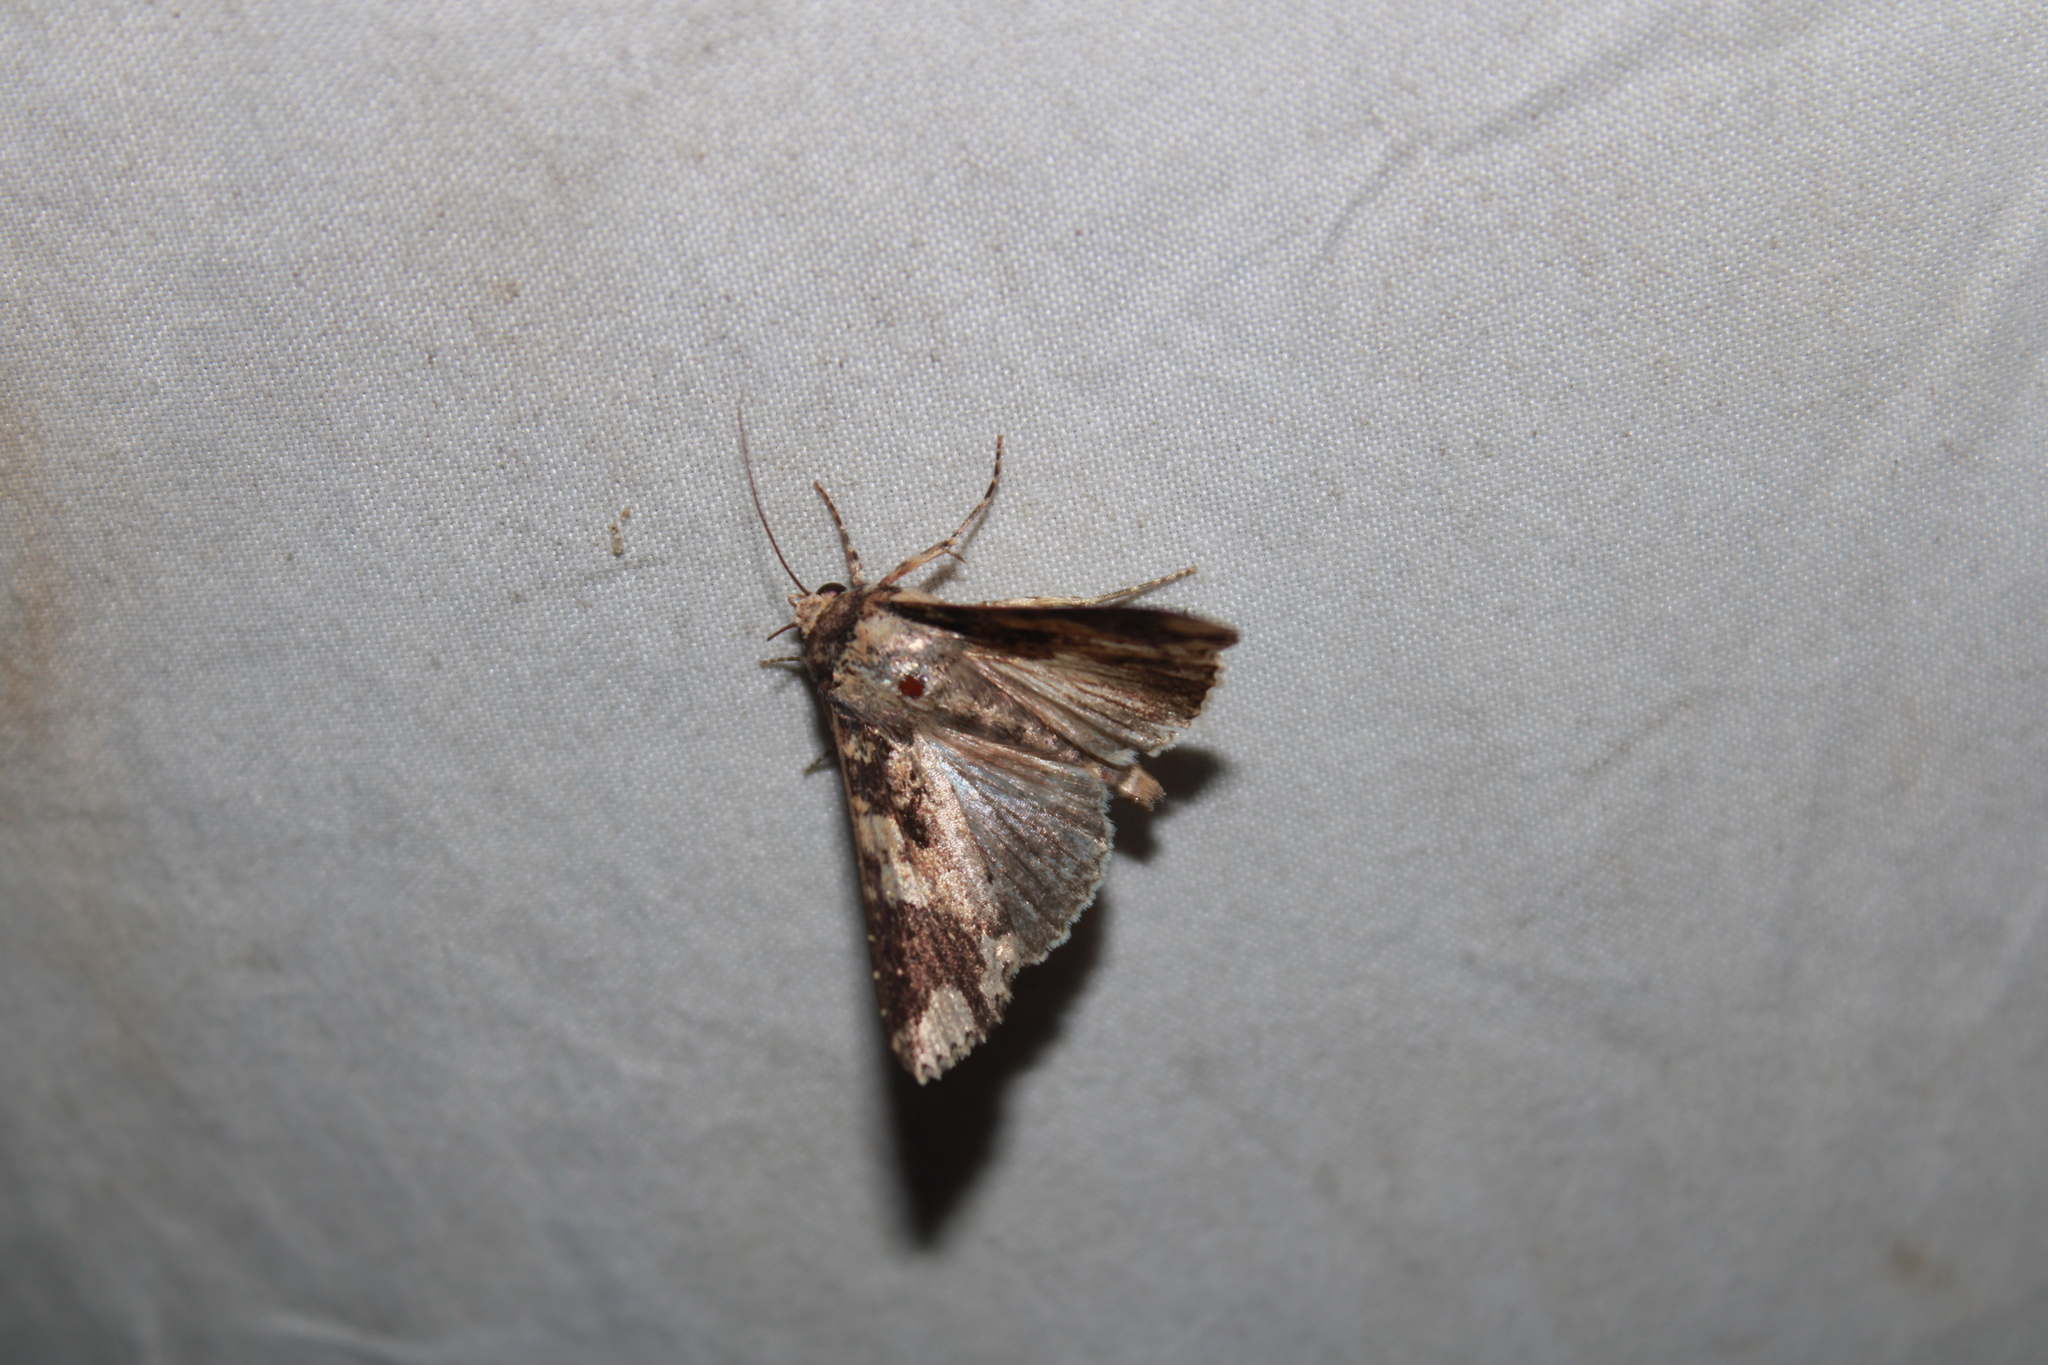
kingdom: Animalia
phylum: Arthropoda
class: Insecta
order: Lepidoptera
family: Noctuidae
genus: Condica
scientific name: Condica confederata
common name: The confederate
